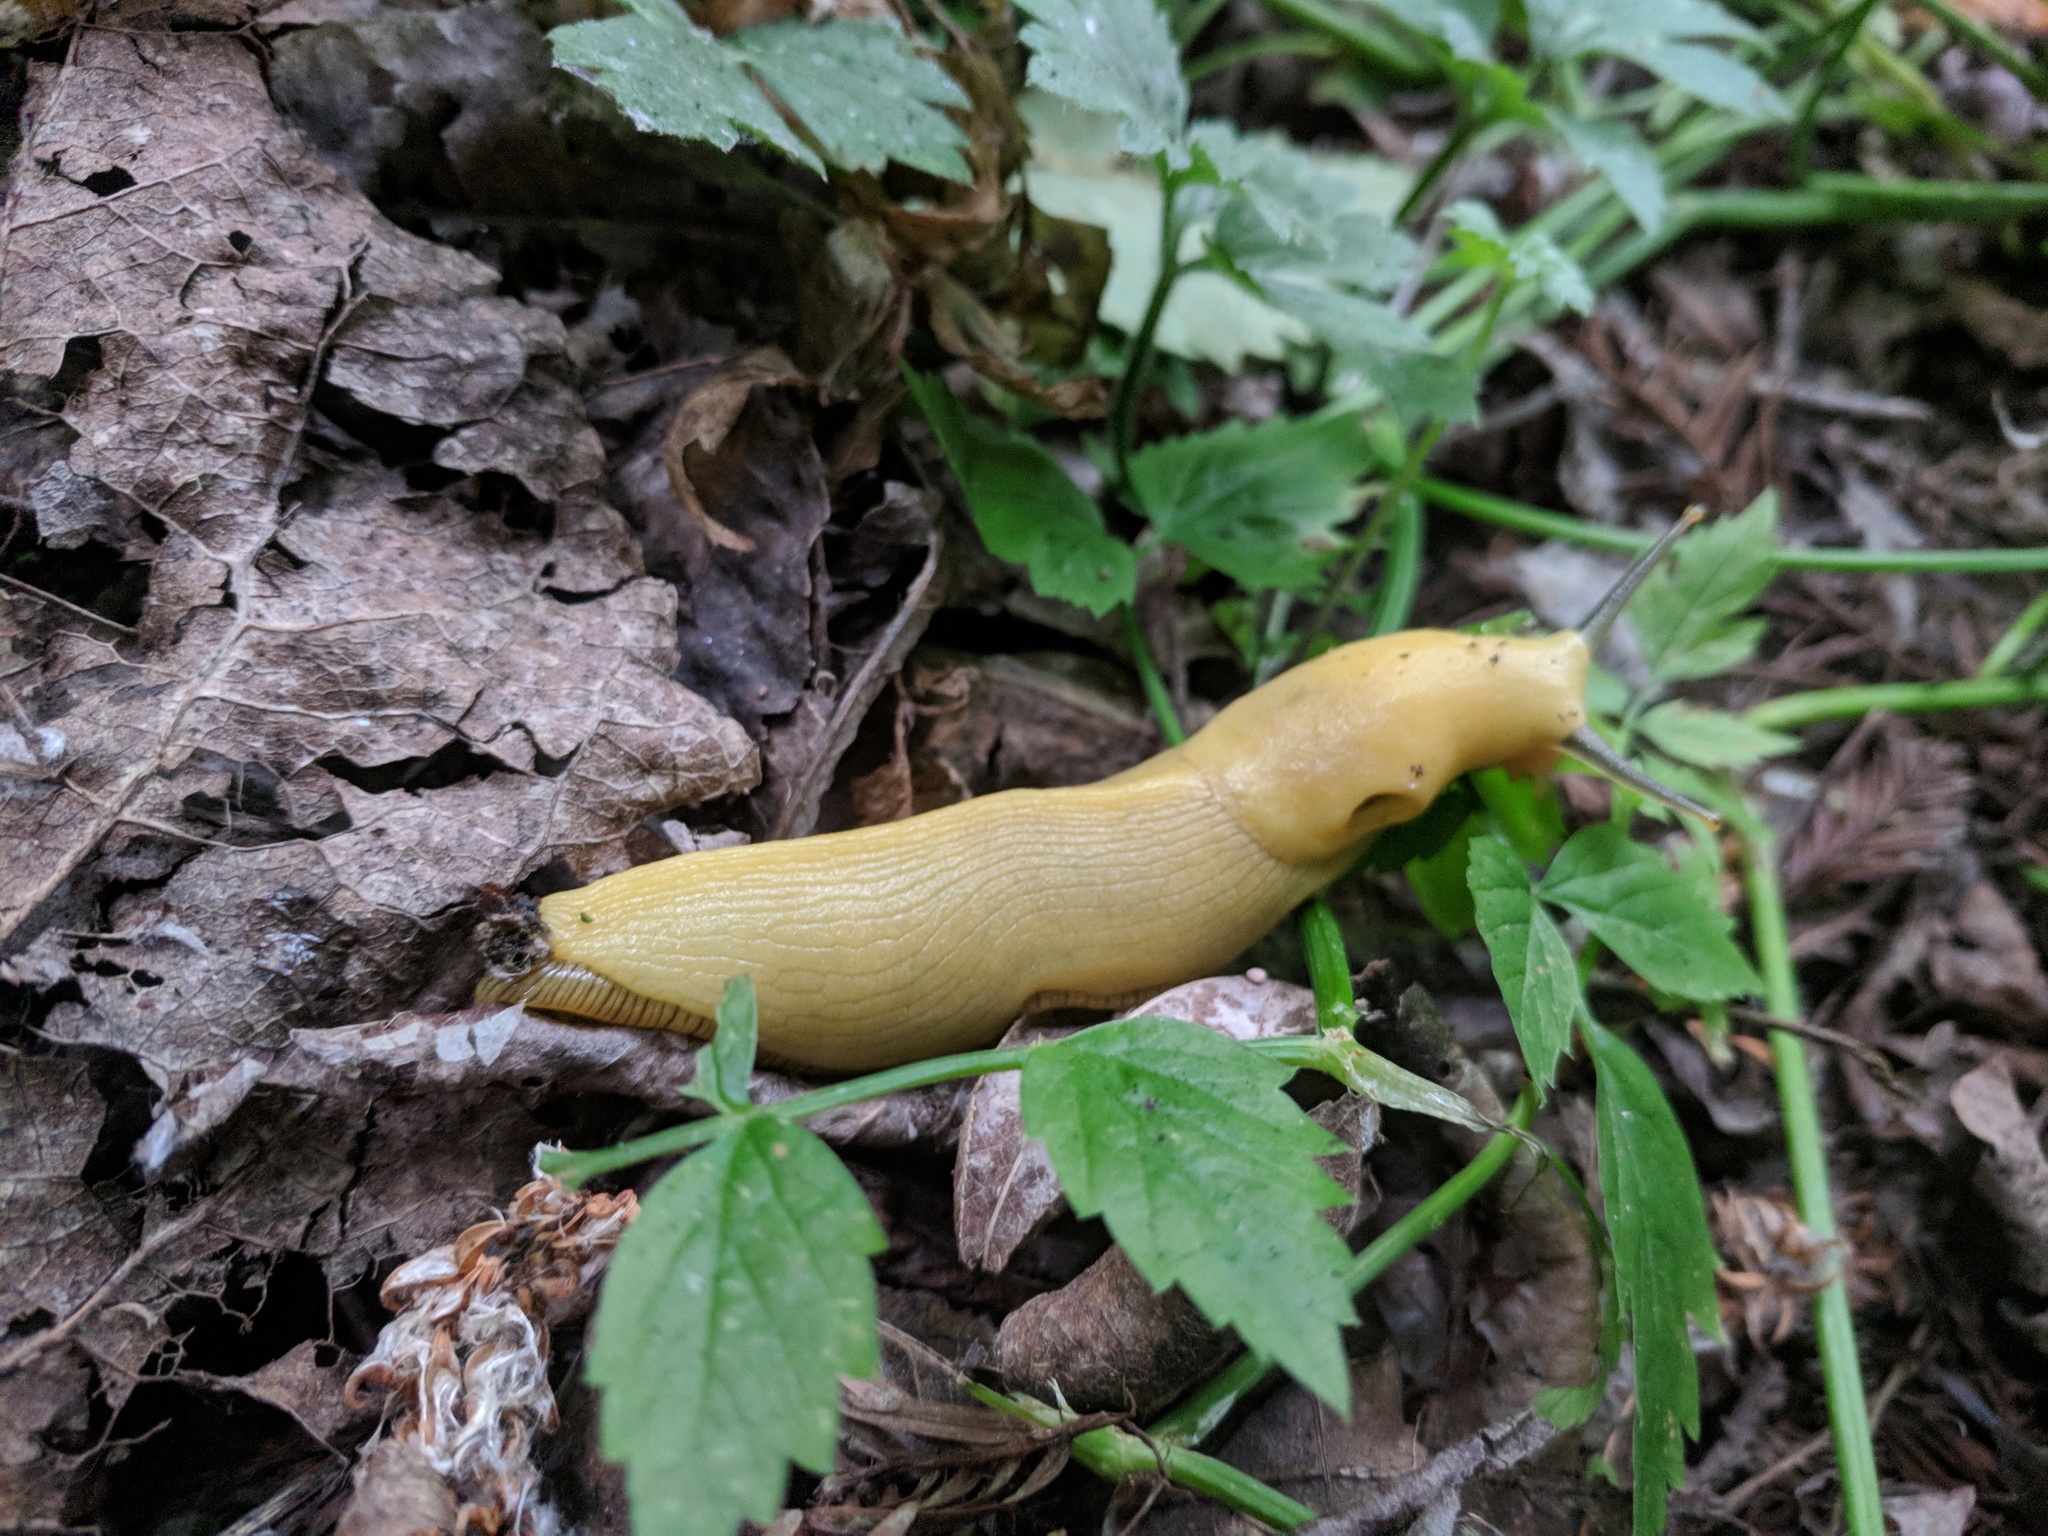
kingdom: Animalia
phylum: Mollusca
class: Gastropoda
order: Stylommatophora
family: Ariolimacidae
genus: Ariolimax
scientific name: Ariolimax columbianus
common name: Pacific banana slug
